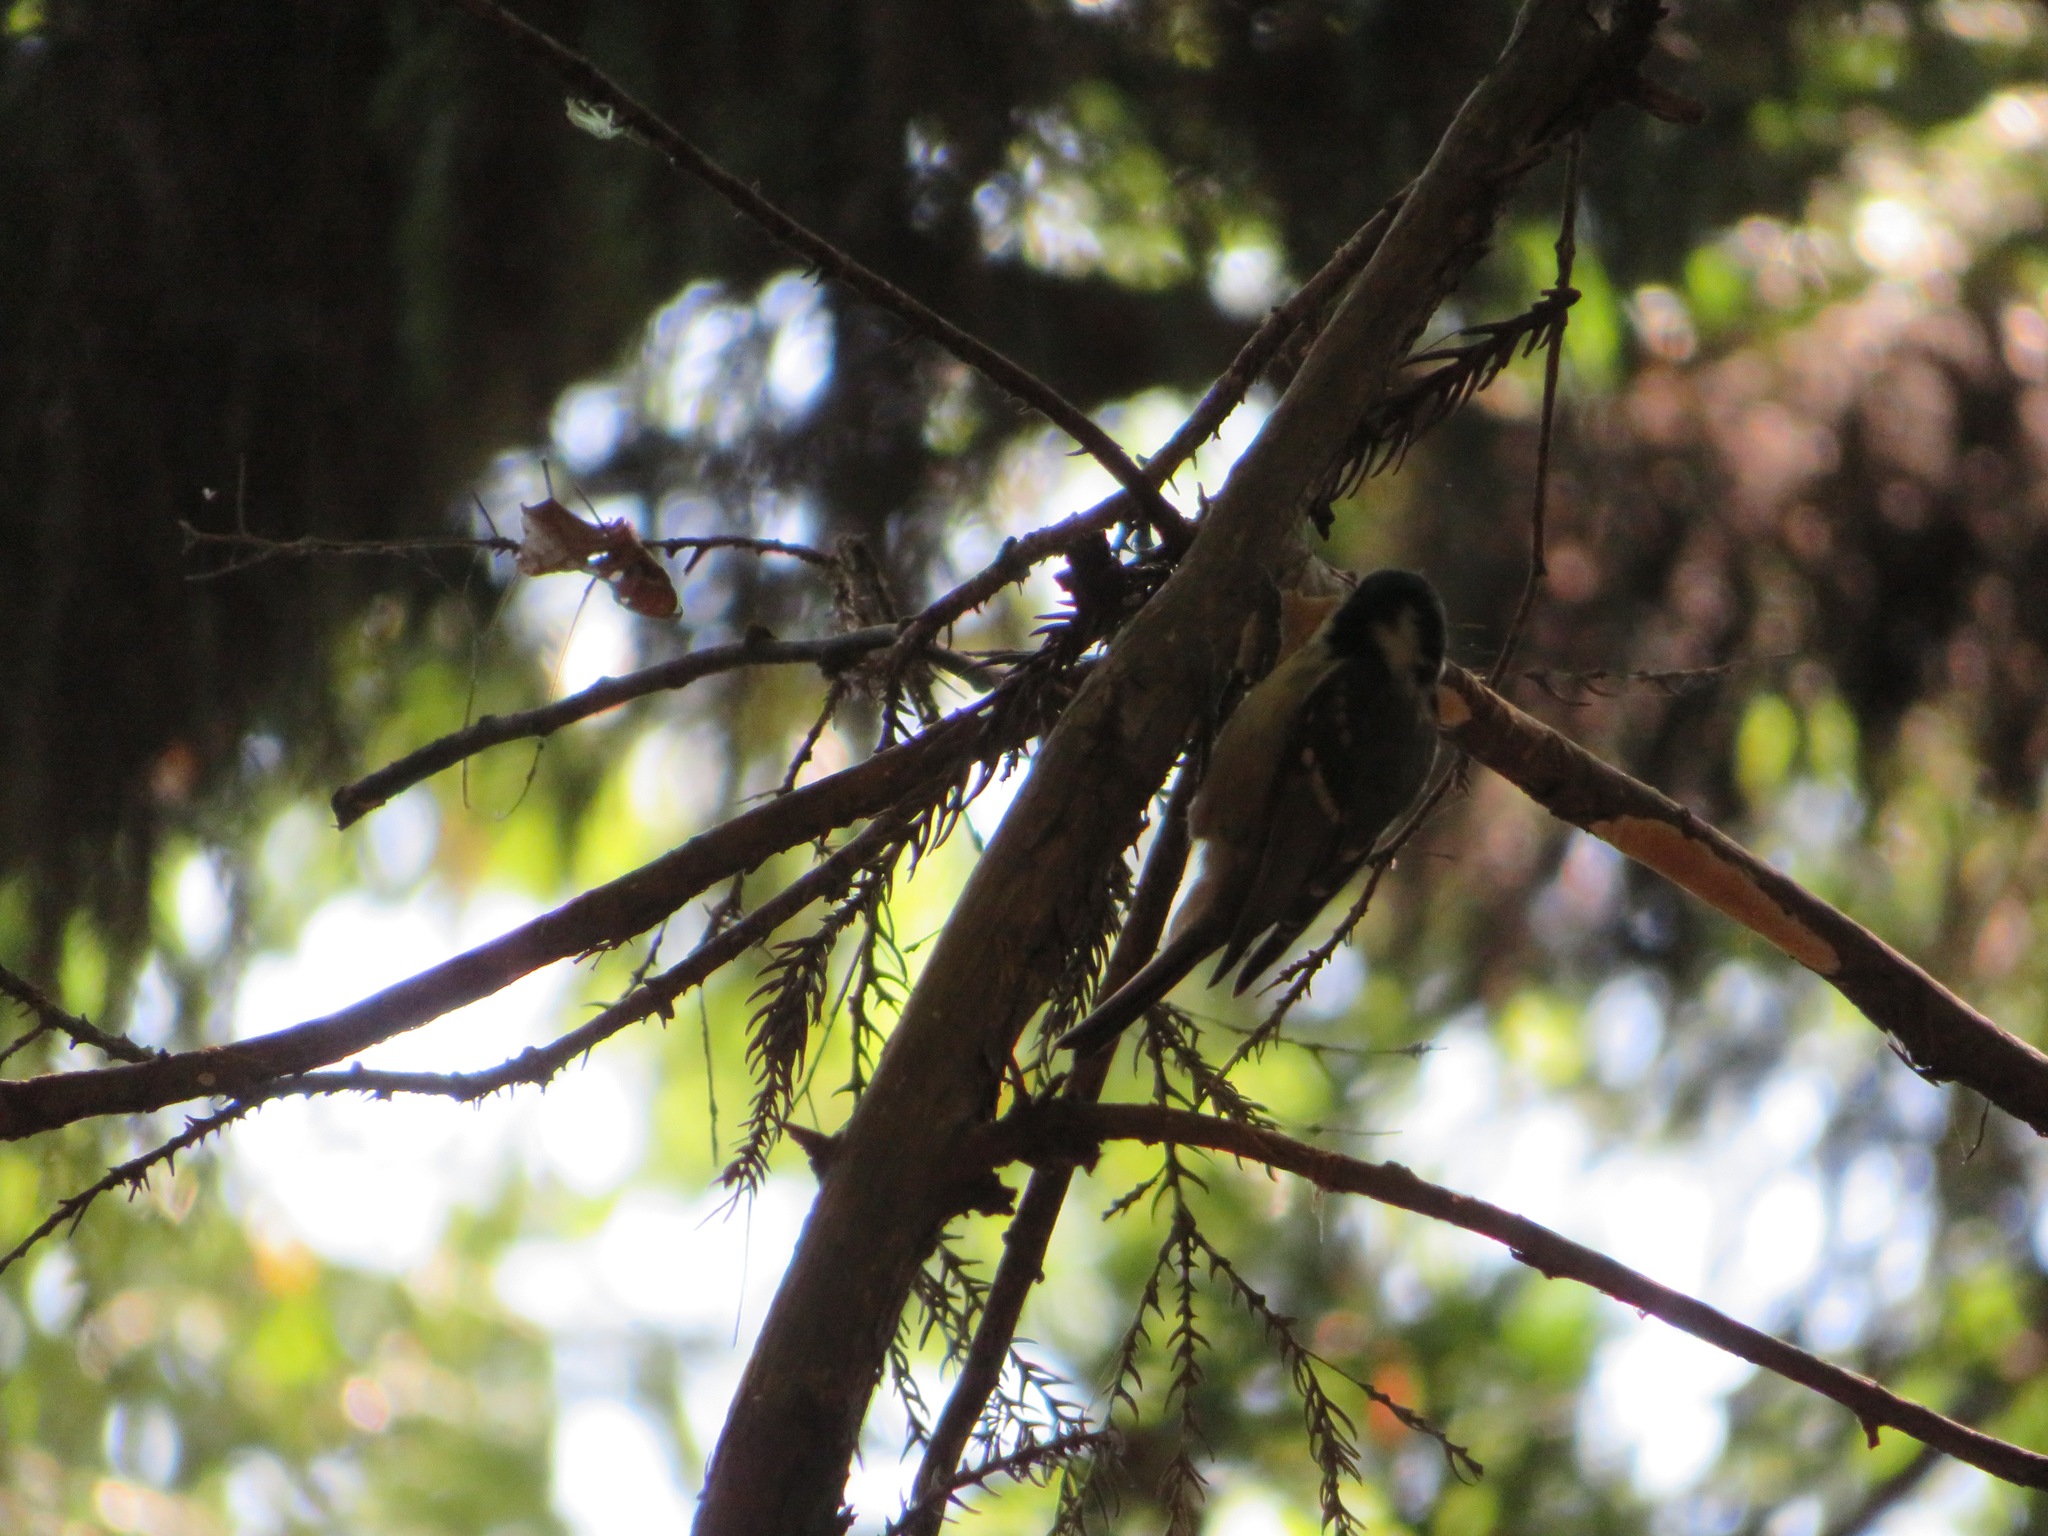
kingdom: Animalia
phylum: Chordata
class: Aves
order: Passeriformes
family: Paridae
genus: Periparus
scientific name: Periparus ater
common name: Coal tit
